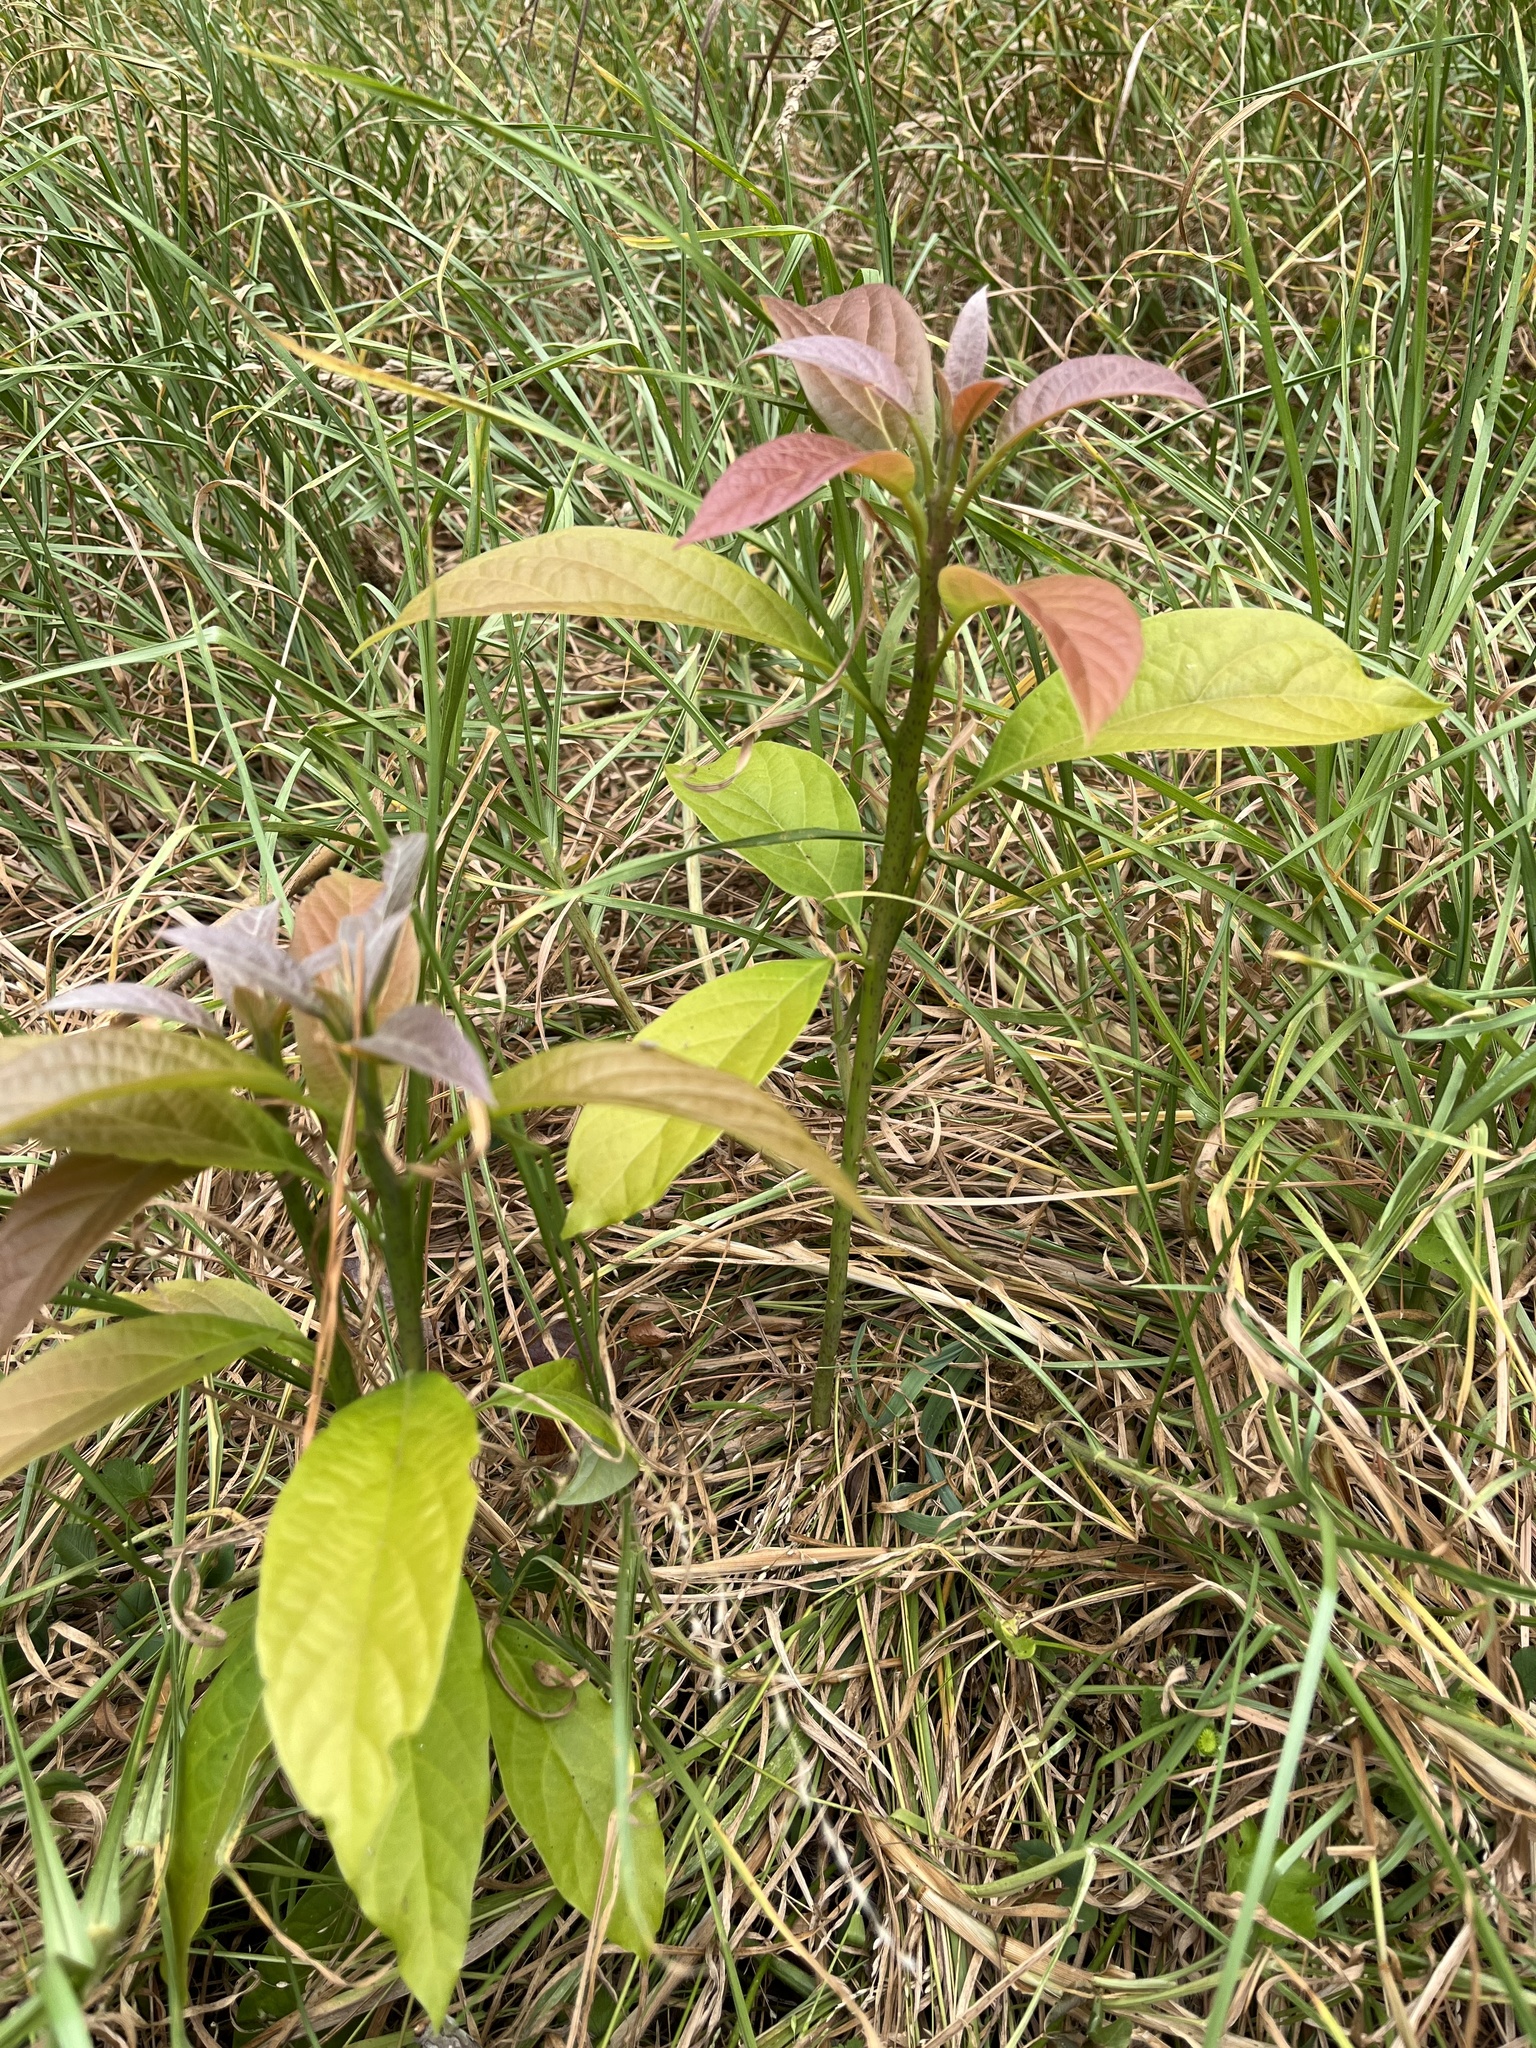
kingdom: Plantae
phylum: Tracheophyta
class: Magnoliopsida
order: Laurales
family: Lauraceae
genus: Persea
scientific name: Persea americana
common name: Avocado
